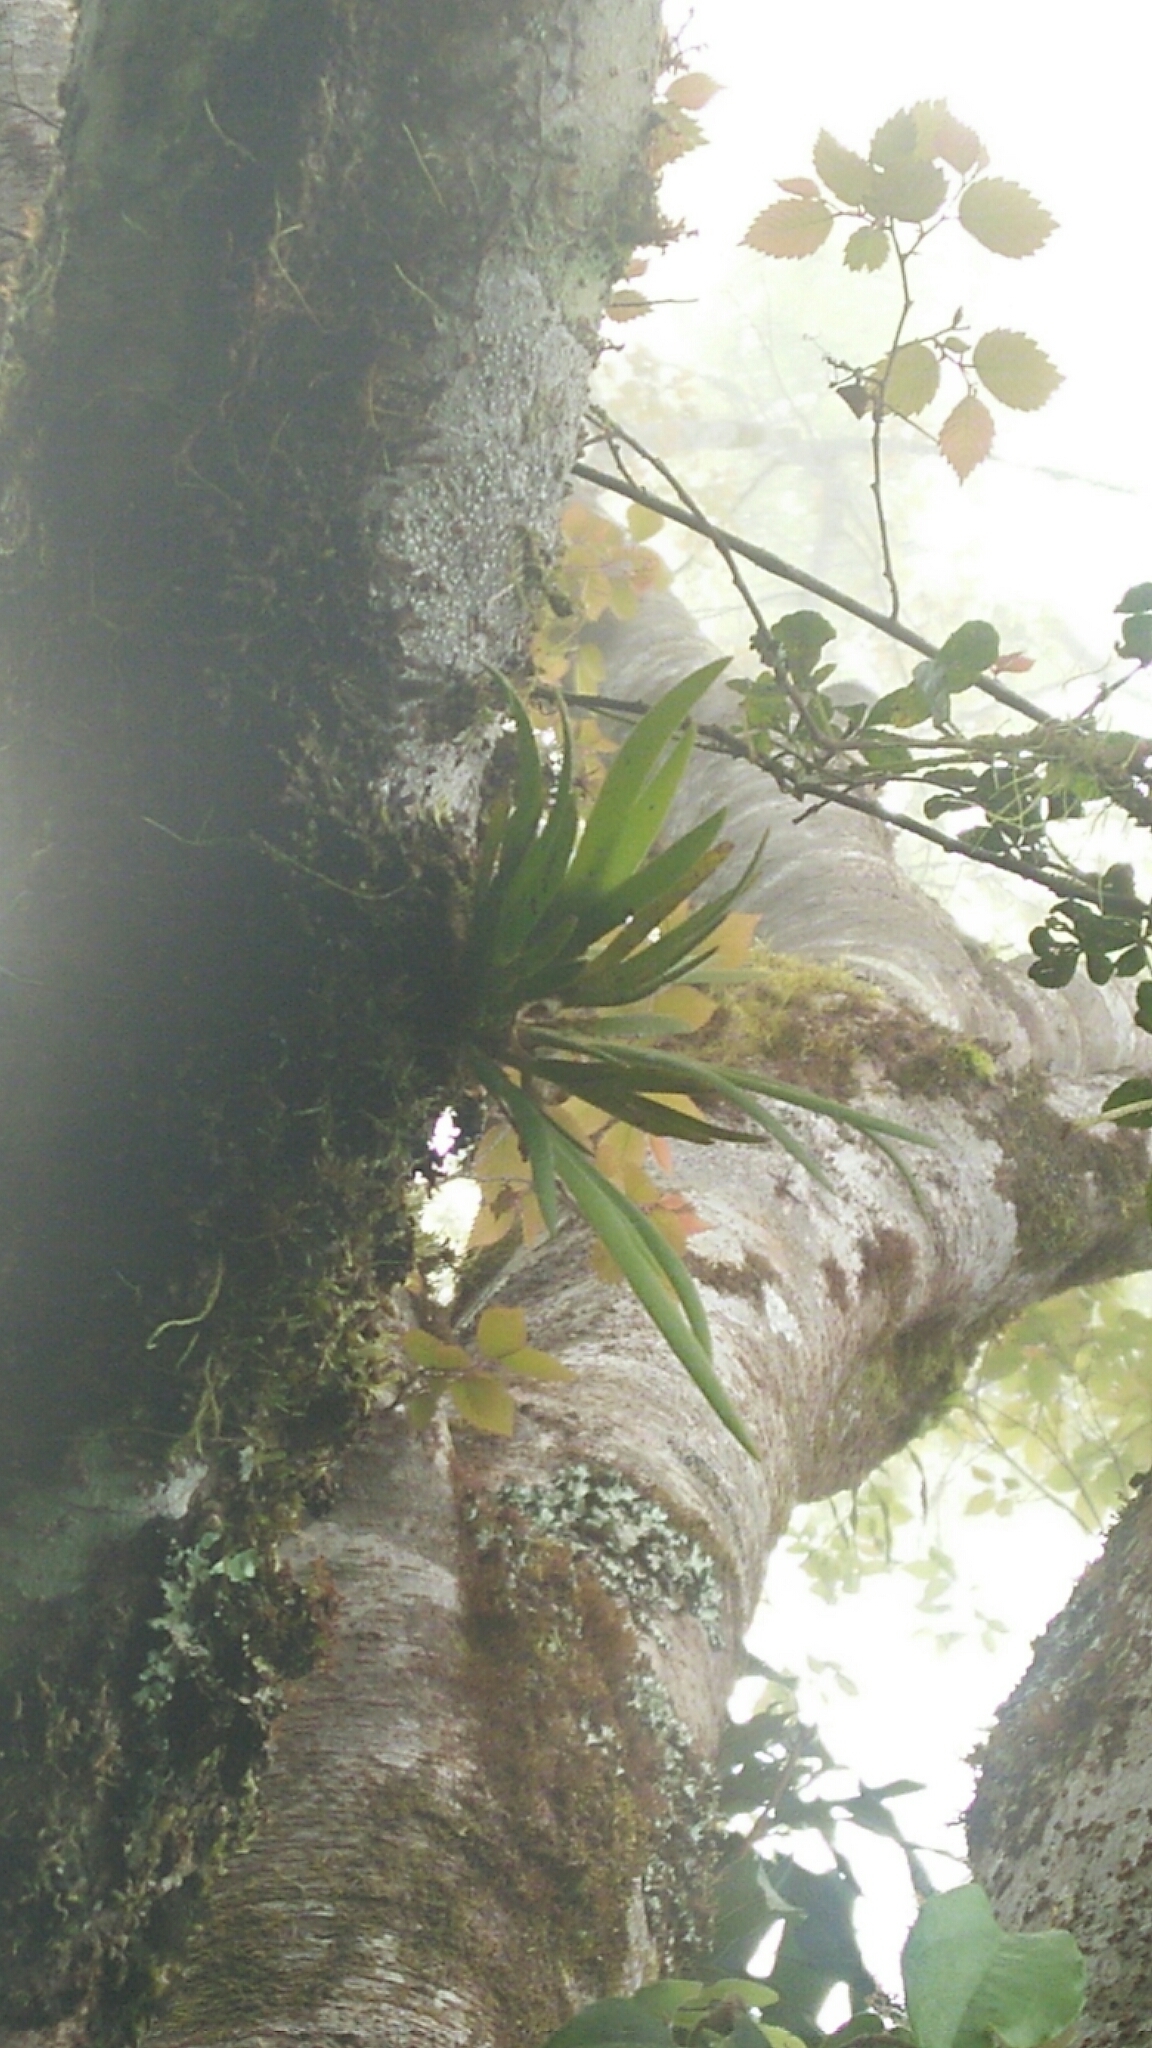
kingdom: Plantae
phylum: Tracheophyta
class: Liliopsida
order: Asparagales
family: Orchidaceae
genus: Oberonia
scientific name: Oberonia caulescens
